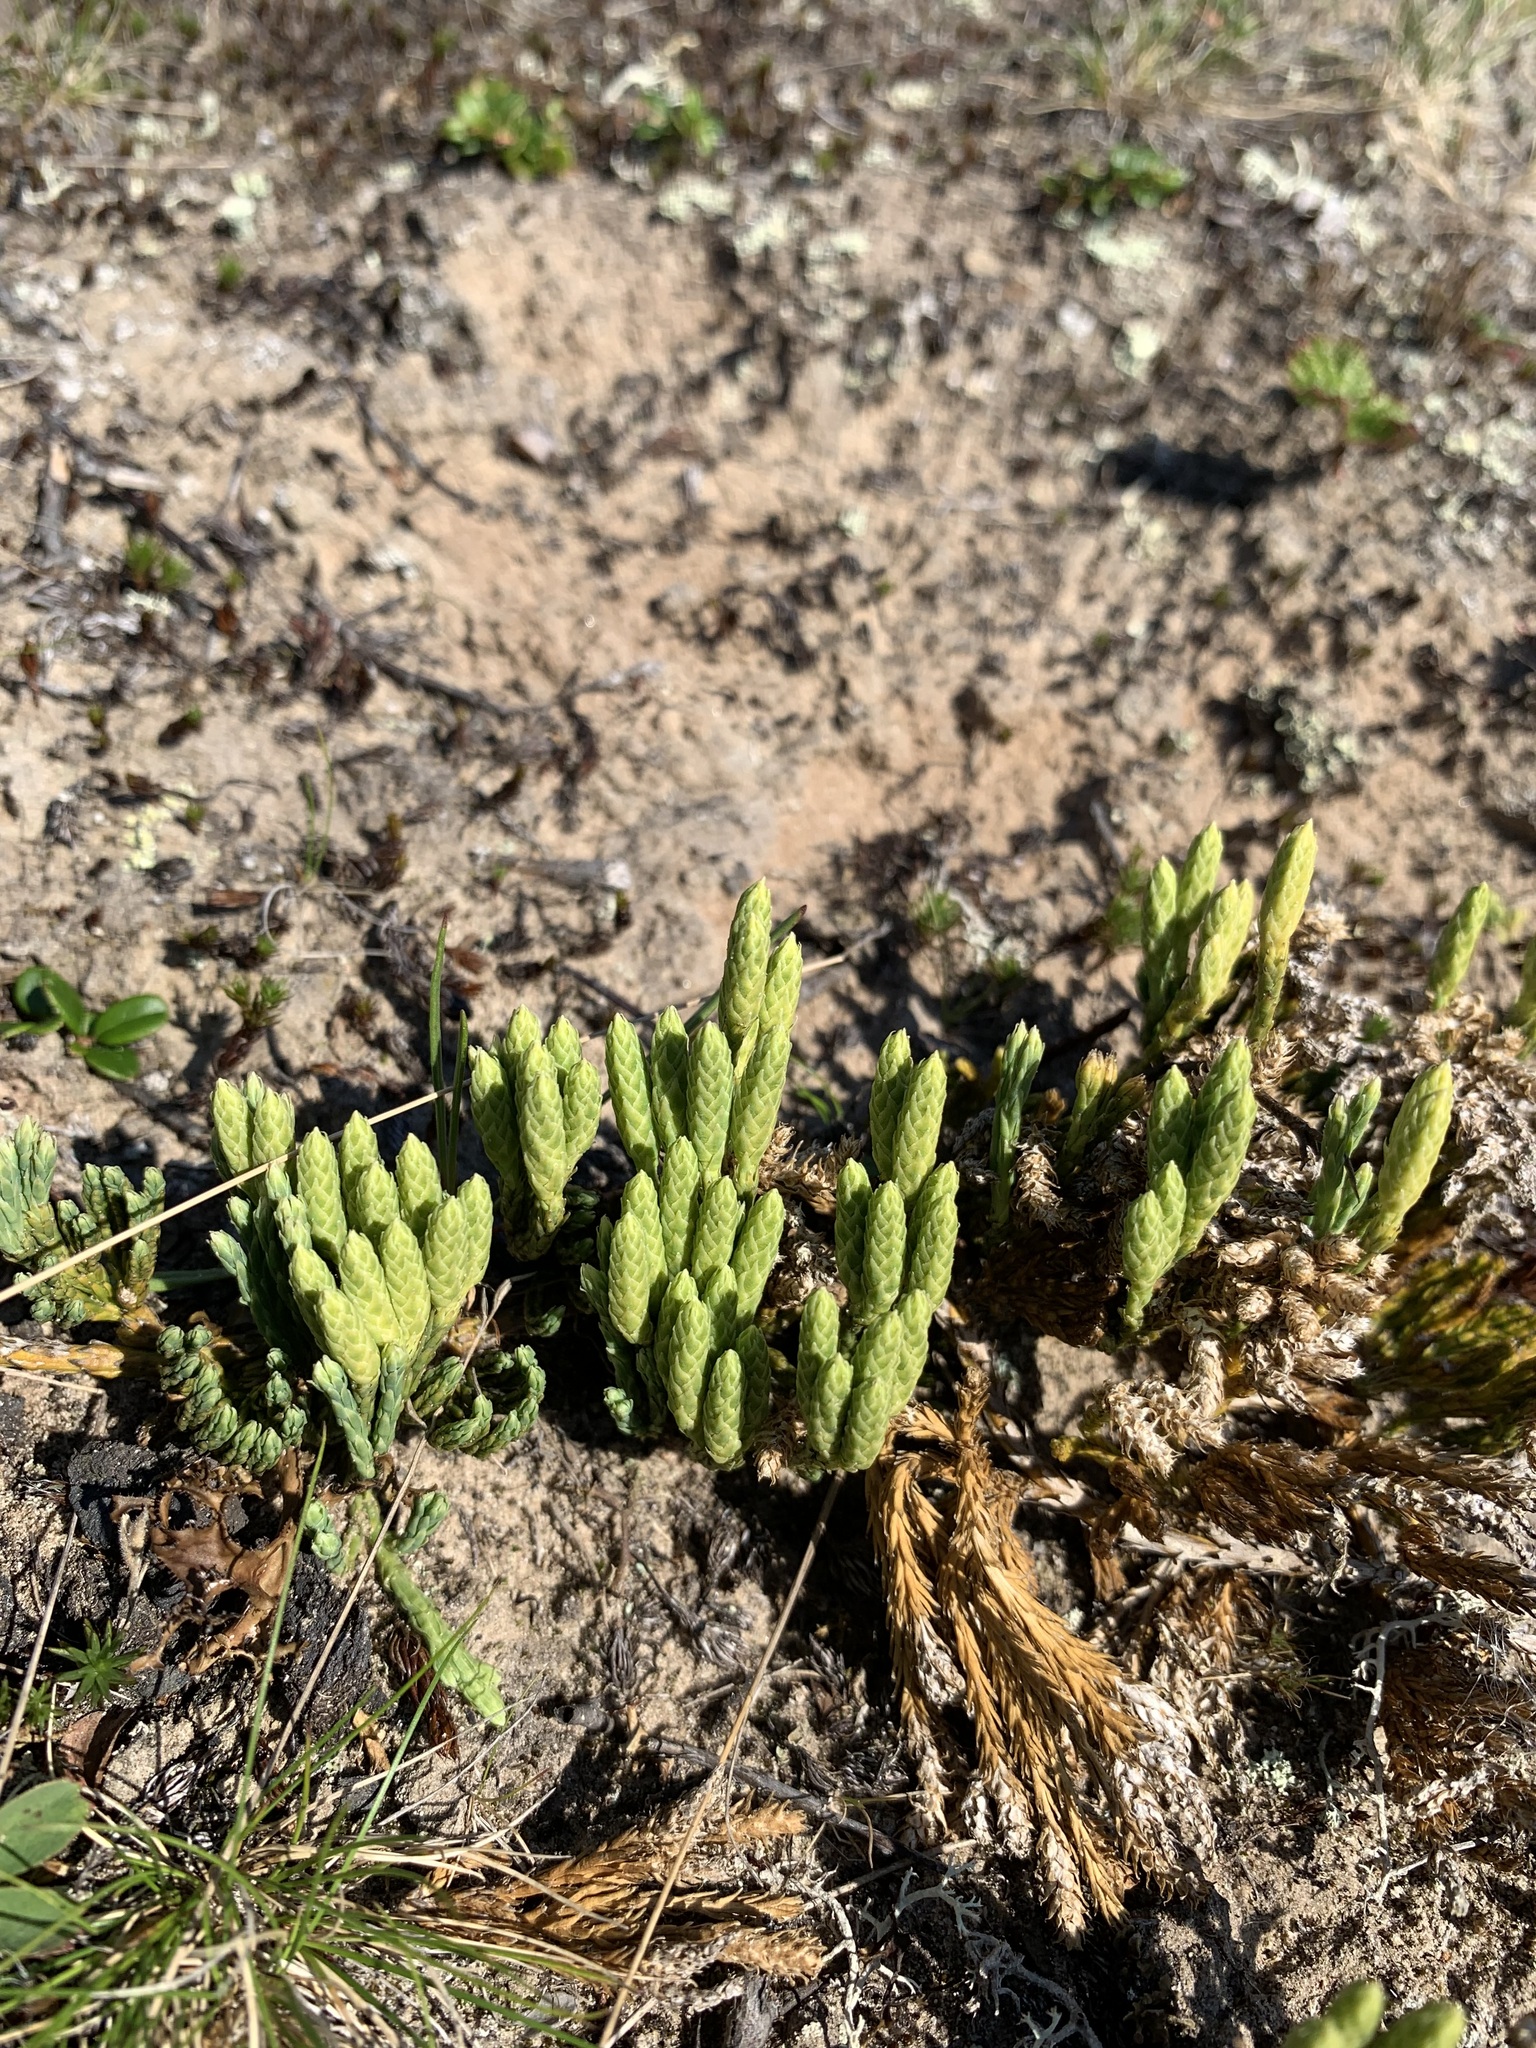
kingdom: Plantae
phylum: Tracheophyta
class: Lycopodiopsida
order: Lycopodiales
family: Lycopodiaceae
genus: Diphasiastrum
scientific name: Diphasiastrum alpinum
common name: Alpine clubmoss
